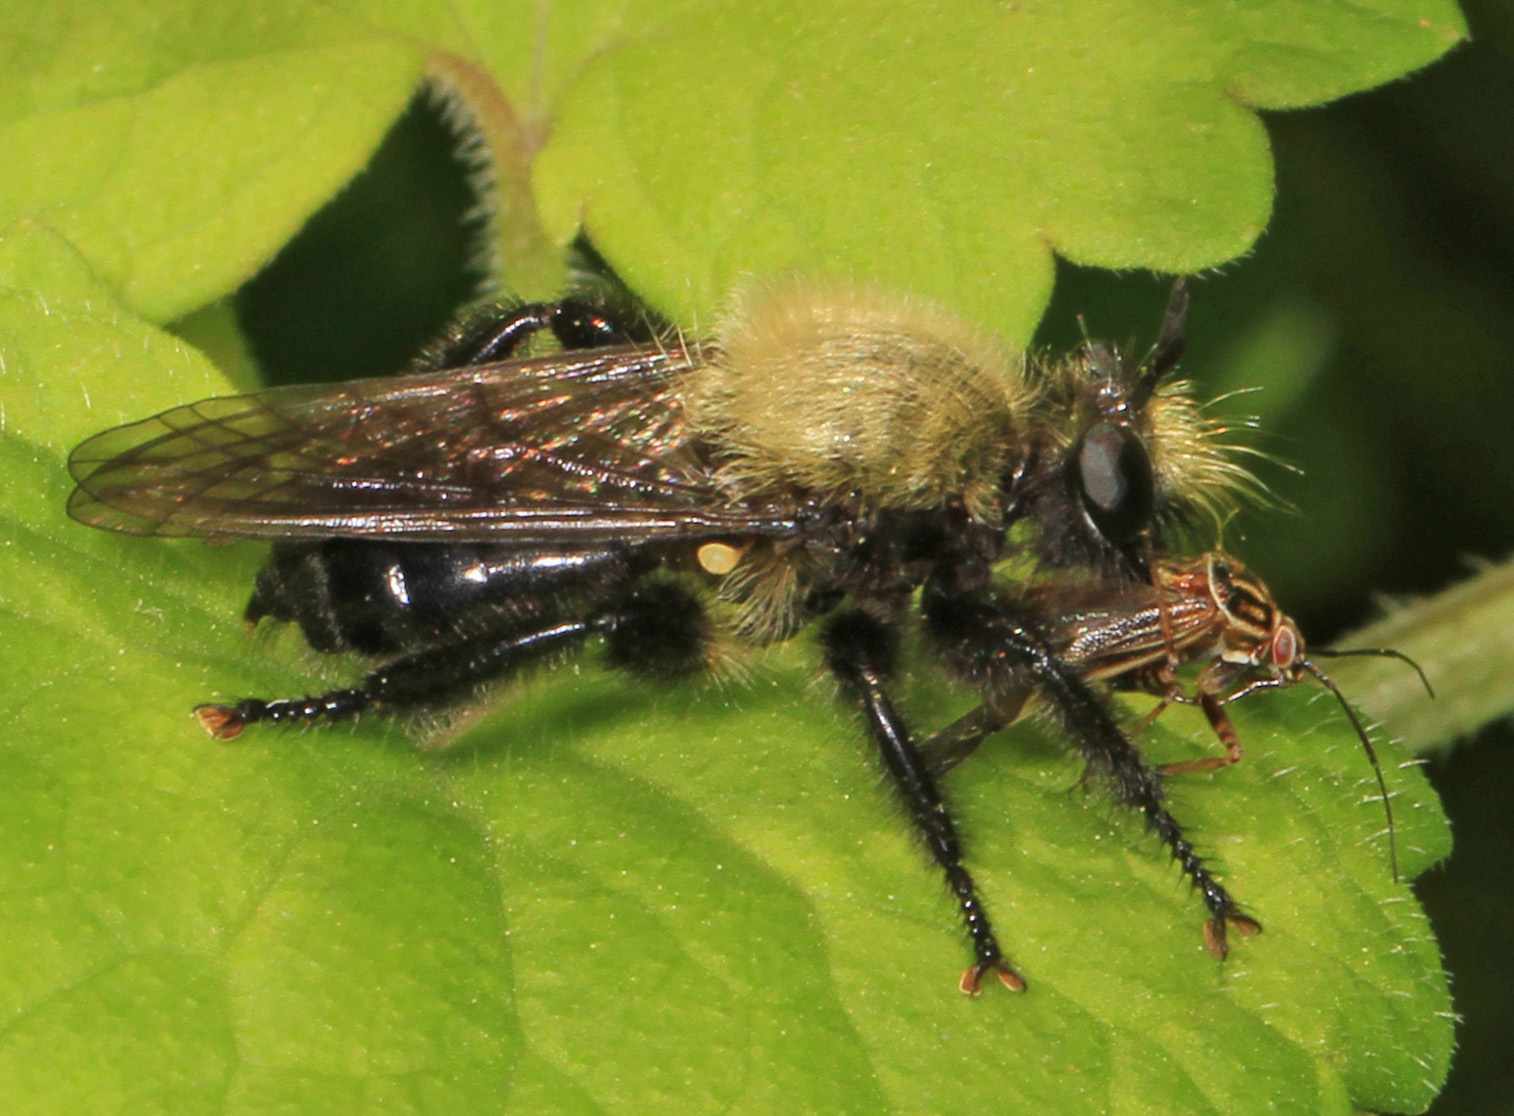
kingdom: Animalia
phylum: Arthropoda
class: Insecta
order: Diptera
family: Asilidae
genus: Laphria
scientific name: Laphria flavicollis
